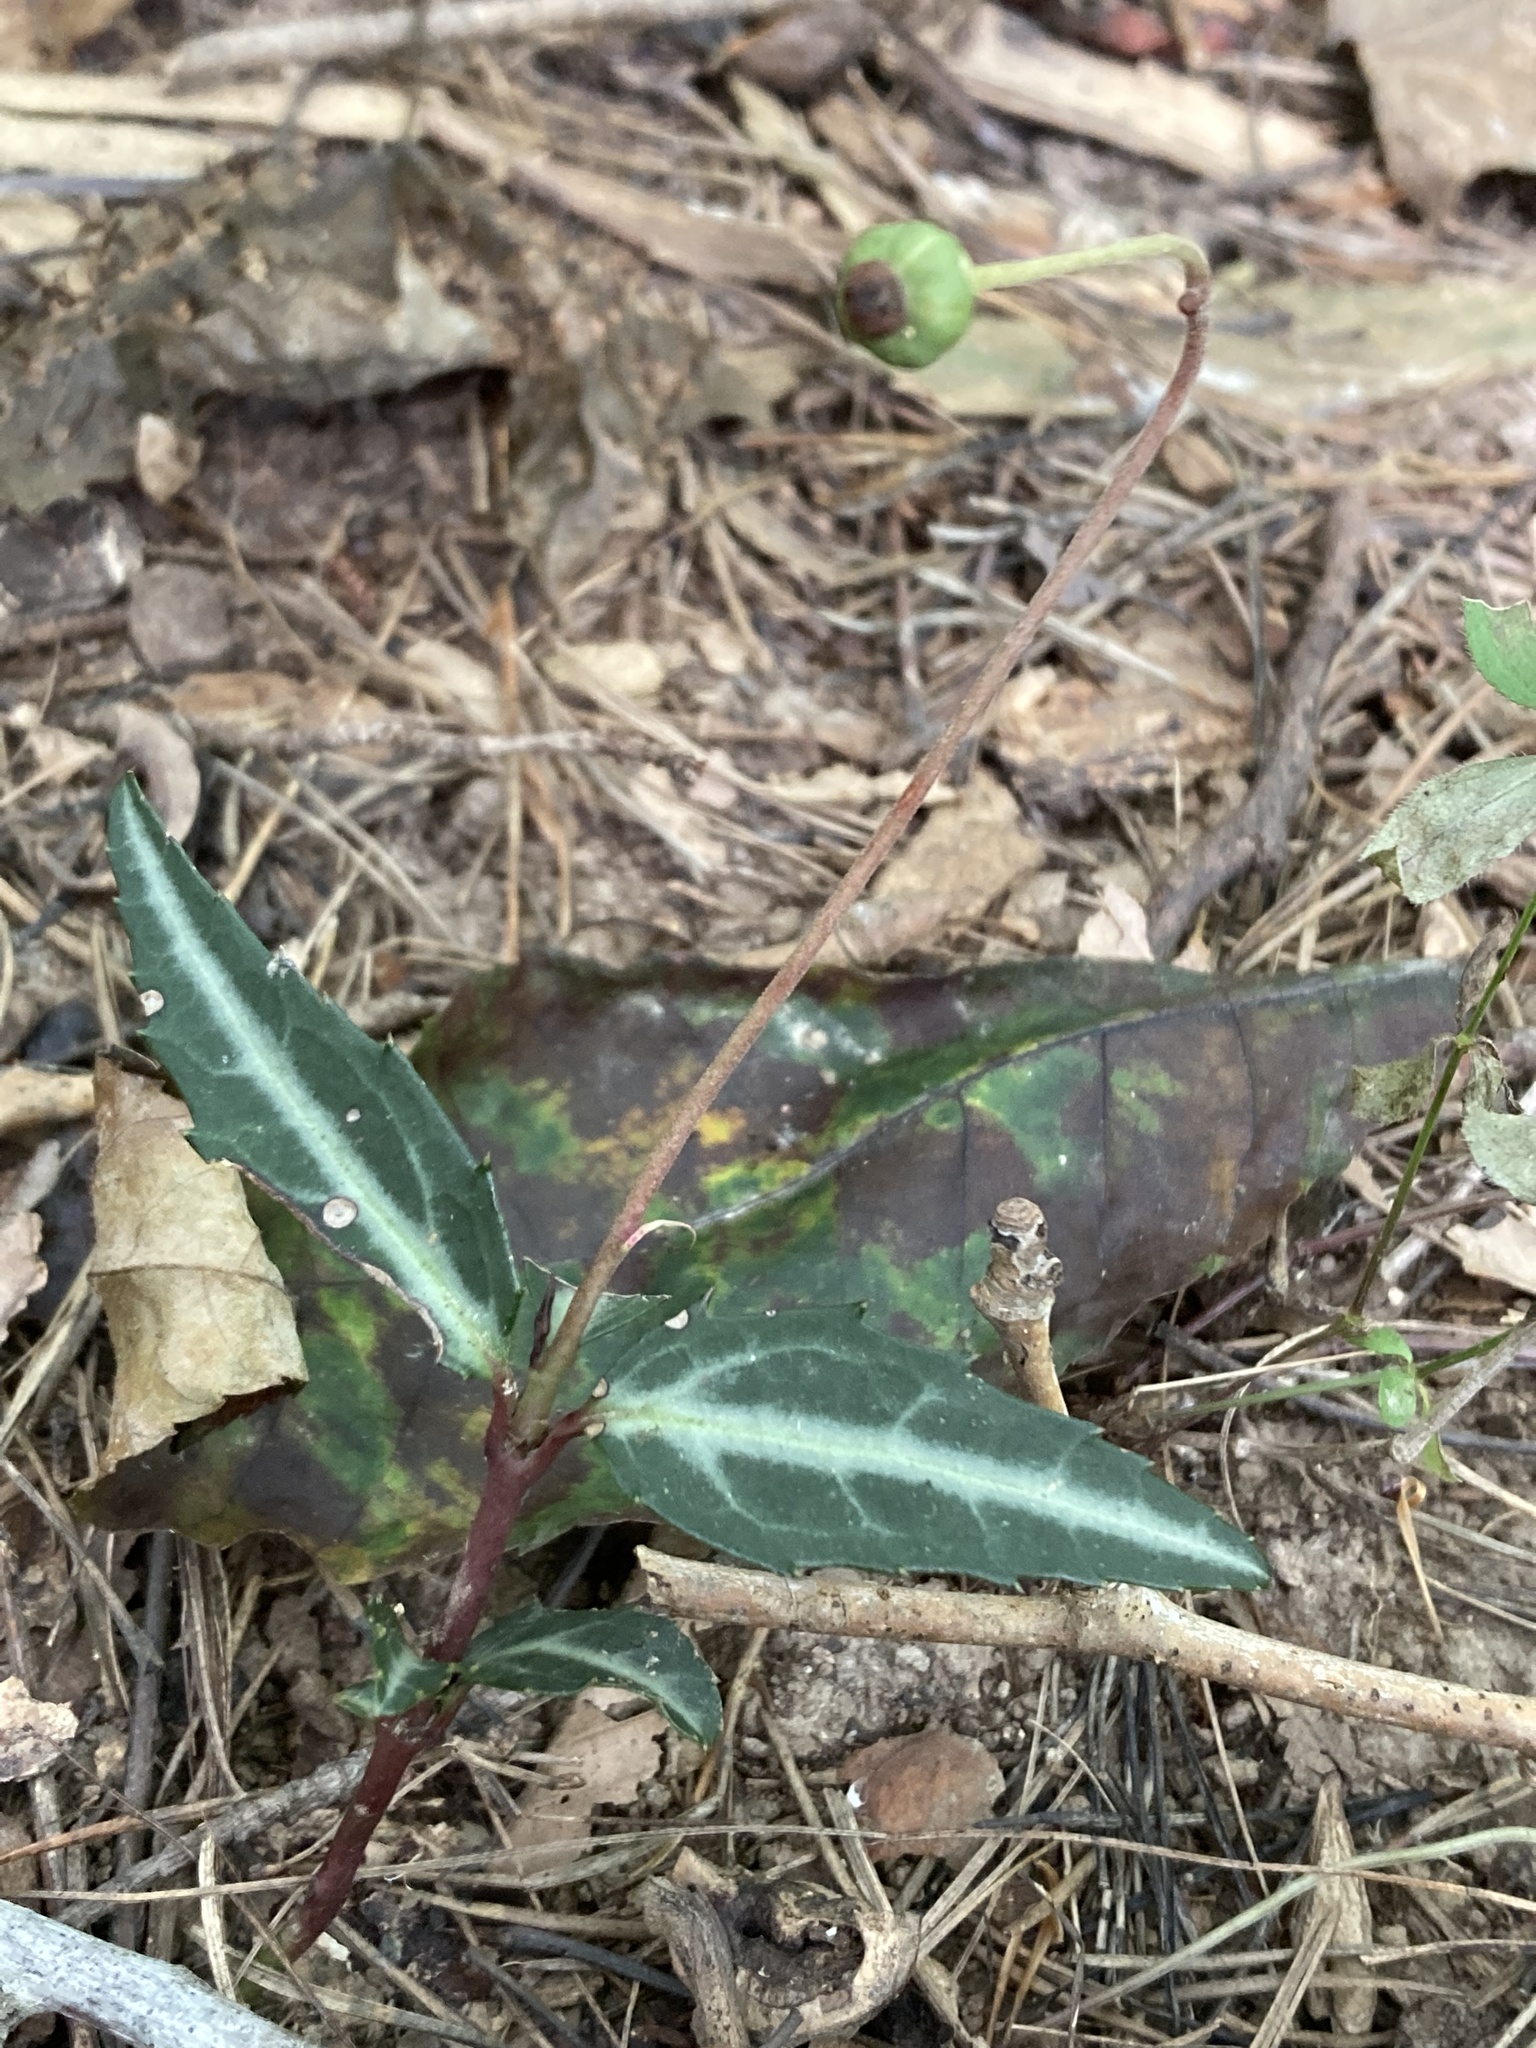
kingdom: Plantae
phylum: Tracheophyta
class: Magnoliopsida
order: Ericales
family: Ericaceae
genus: Chimaphila
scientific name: Chimaphila maculata
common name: Spotted pipsissewa
